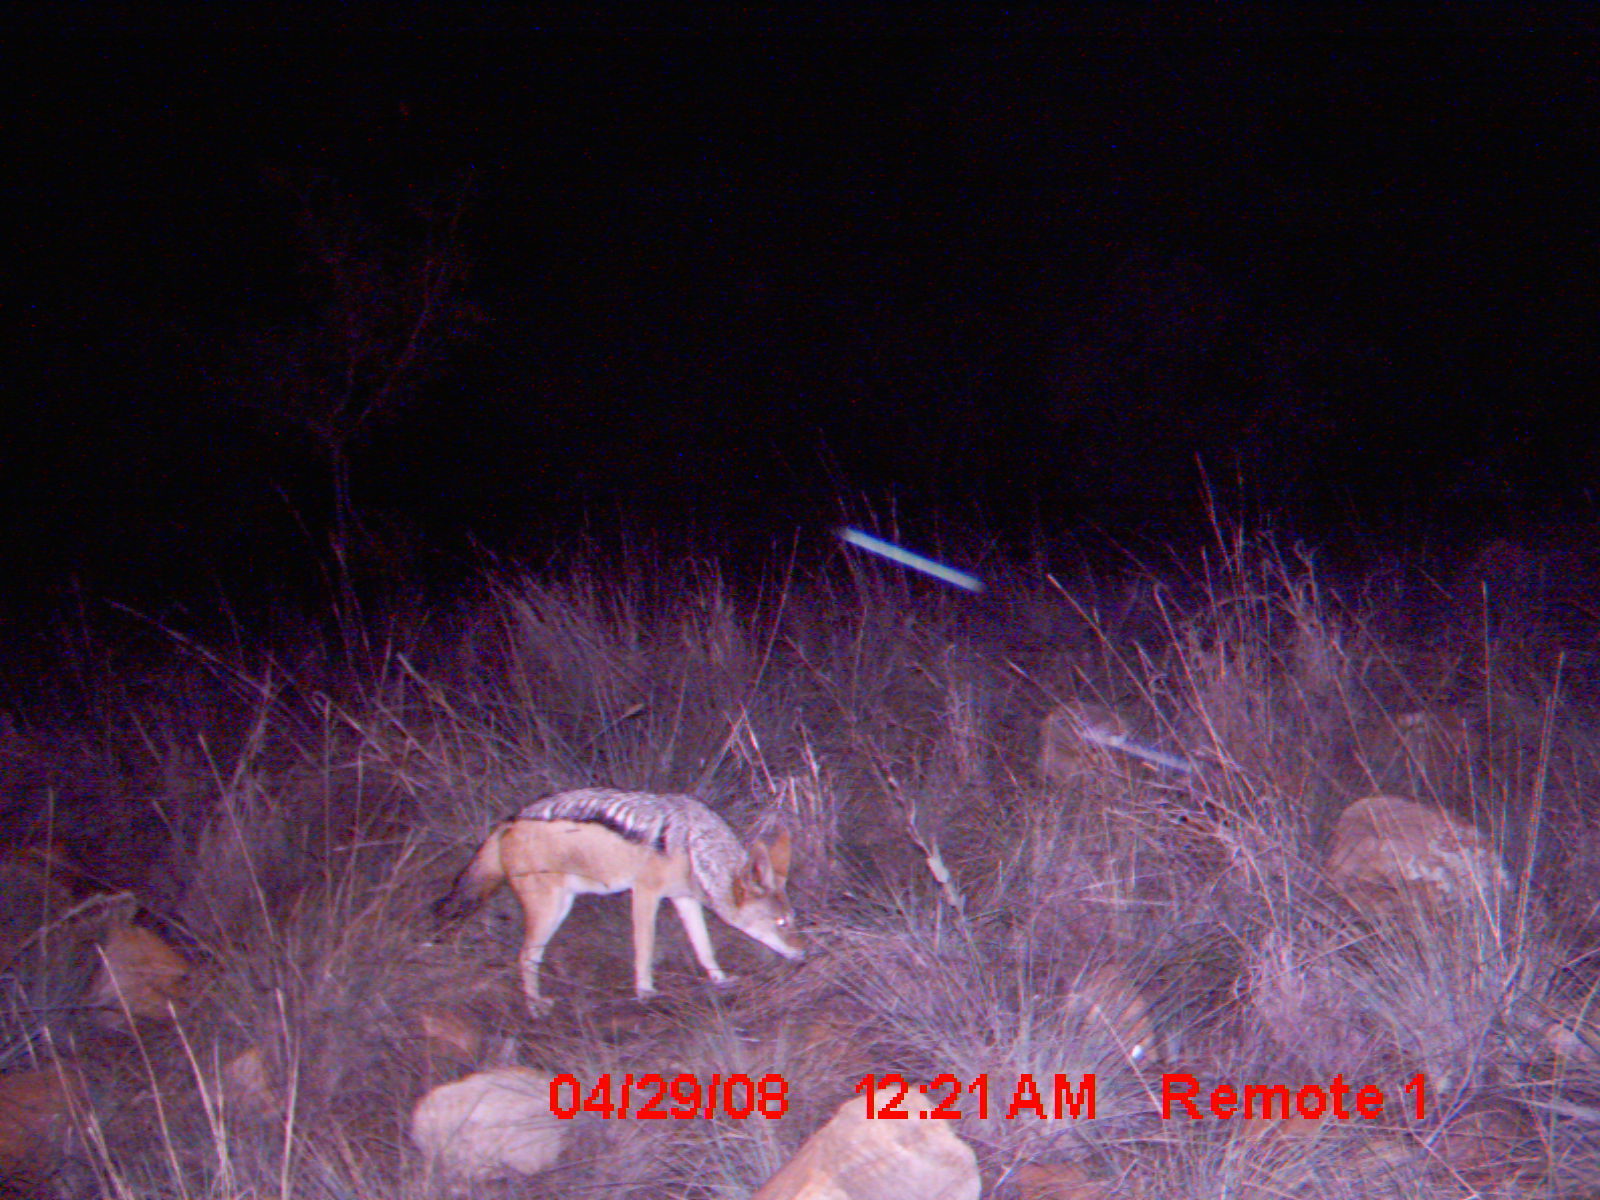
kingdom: Animalia
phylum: Chordata
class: Mammalia
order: Carnivora
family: Canidae
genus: Lupulella
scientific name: Lupulella
